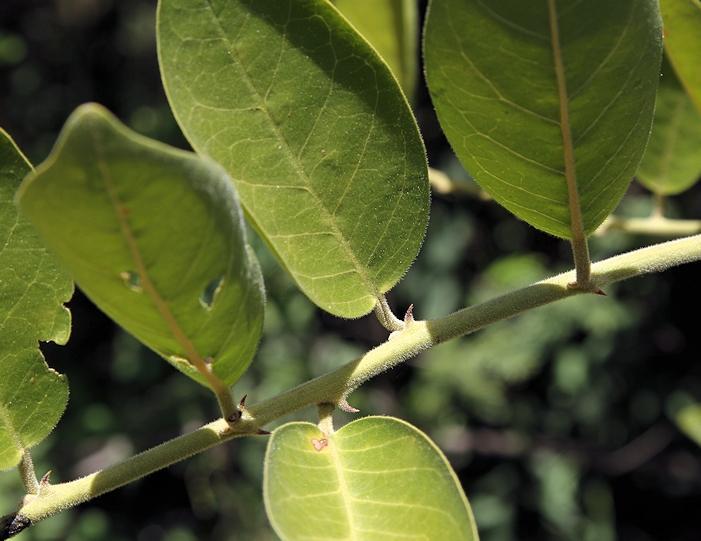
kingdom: Plantae
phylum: Tracheophyta
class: Magnoliopsida
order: Brassicales
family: Capparaceae
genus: Capparis
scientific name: Capparis tomentosa
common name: African caper
